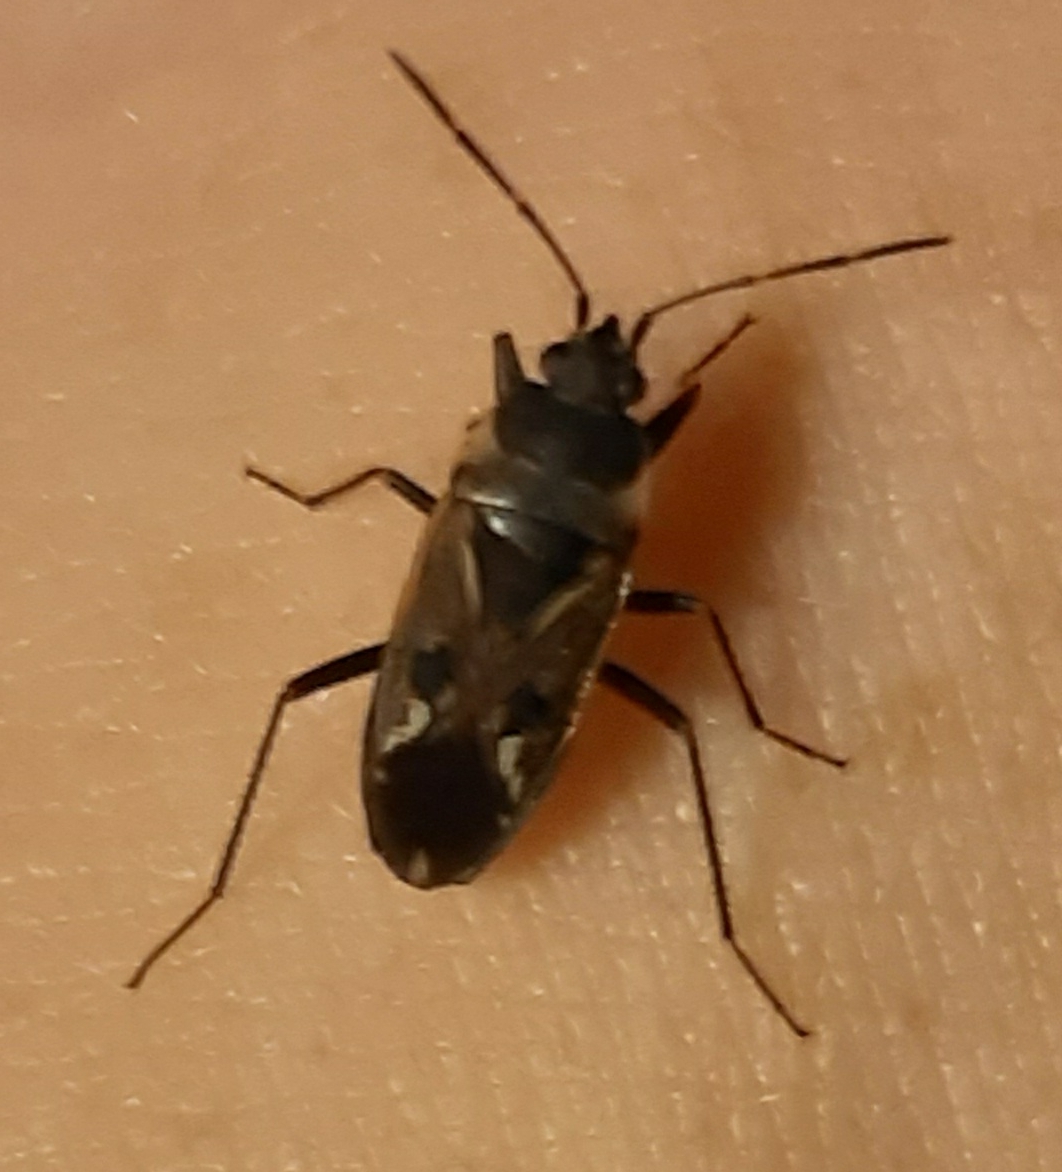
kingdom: Animalia
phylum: Arthropoda
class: Insecta
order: Hemiptera
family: Rhyparochromidae
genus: Rhyparochromus
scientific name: Rhyparochromus vulgaris
